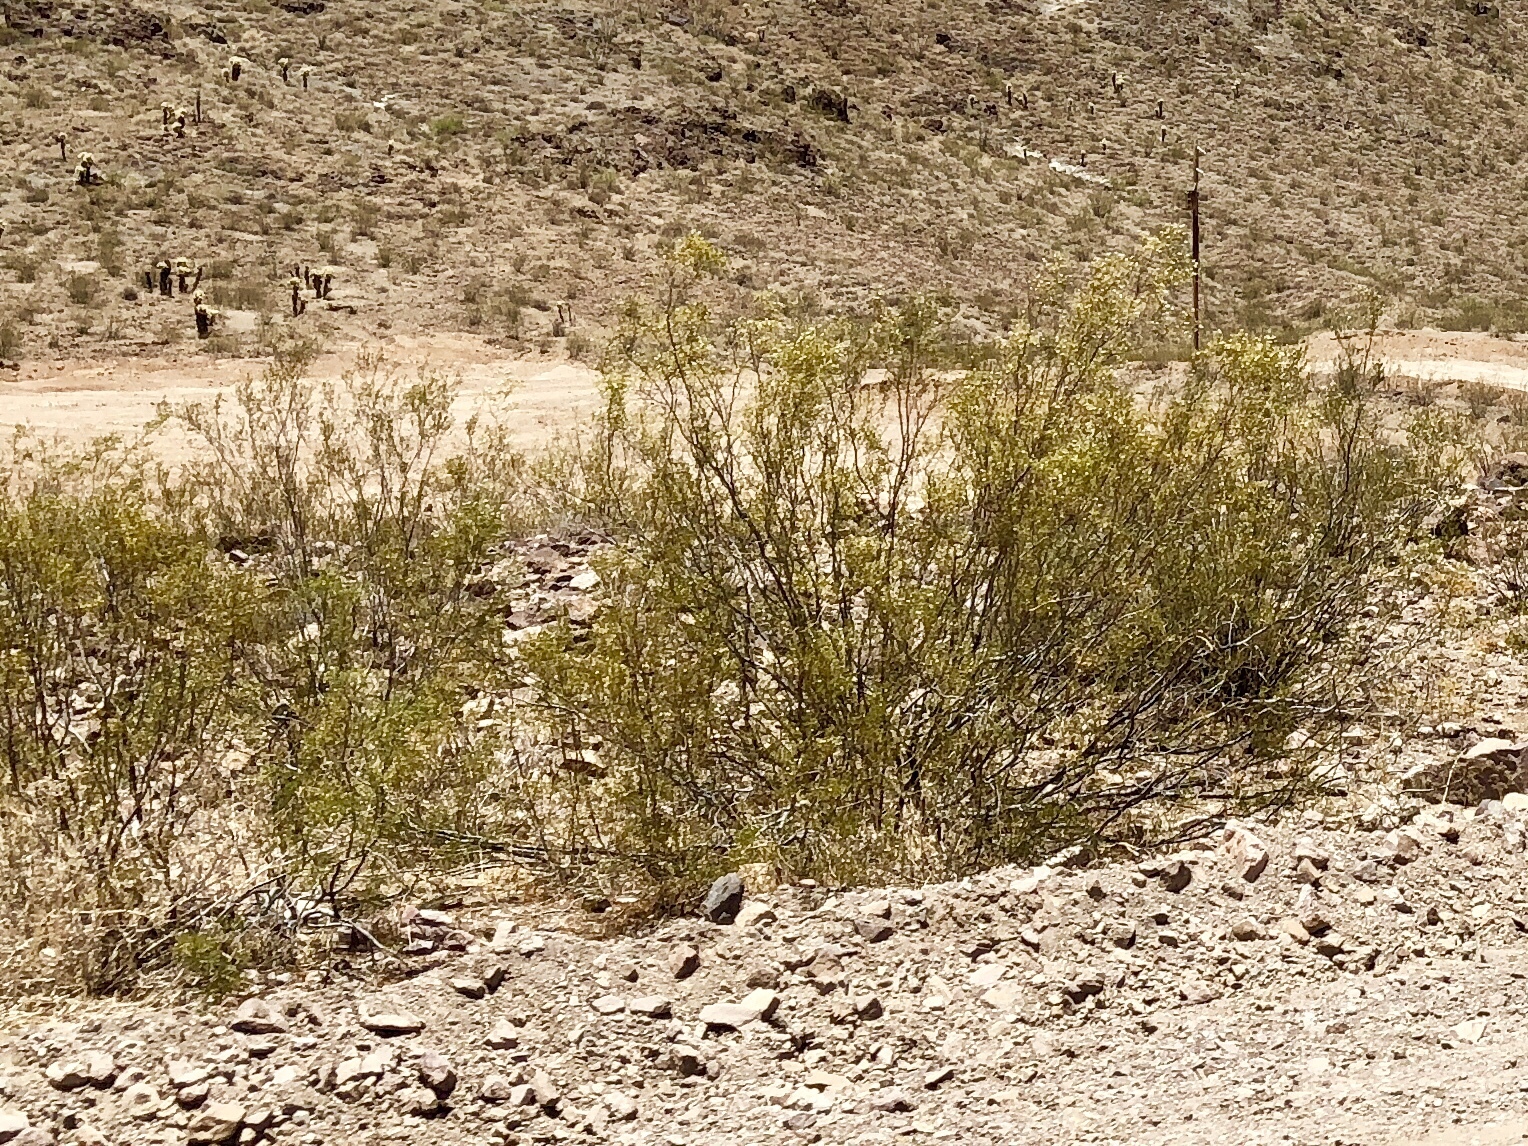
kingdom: Plantae
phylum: Tracheophyta
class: Magnoliopsida
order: Zygophyllales
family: Zygophyllaceae
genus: Larrea
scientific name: Larrea tridentata
